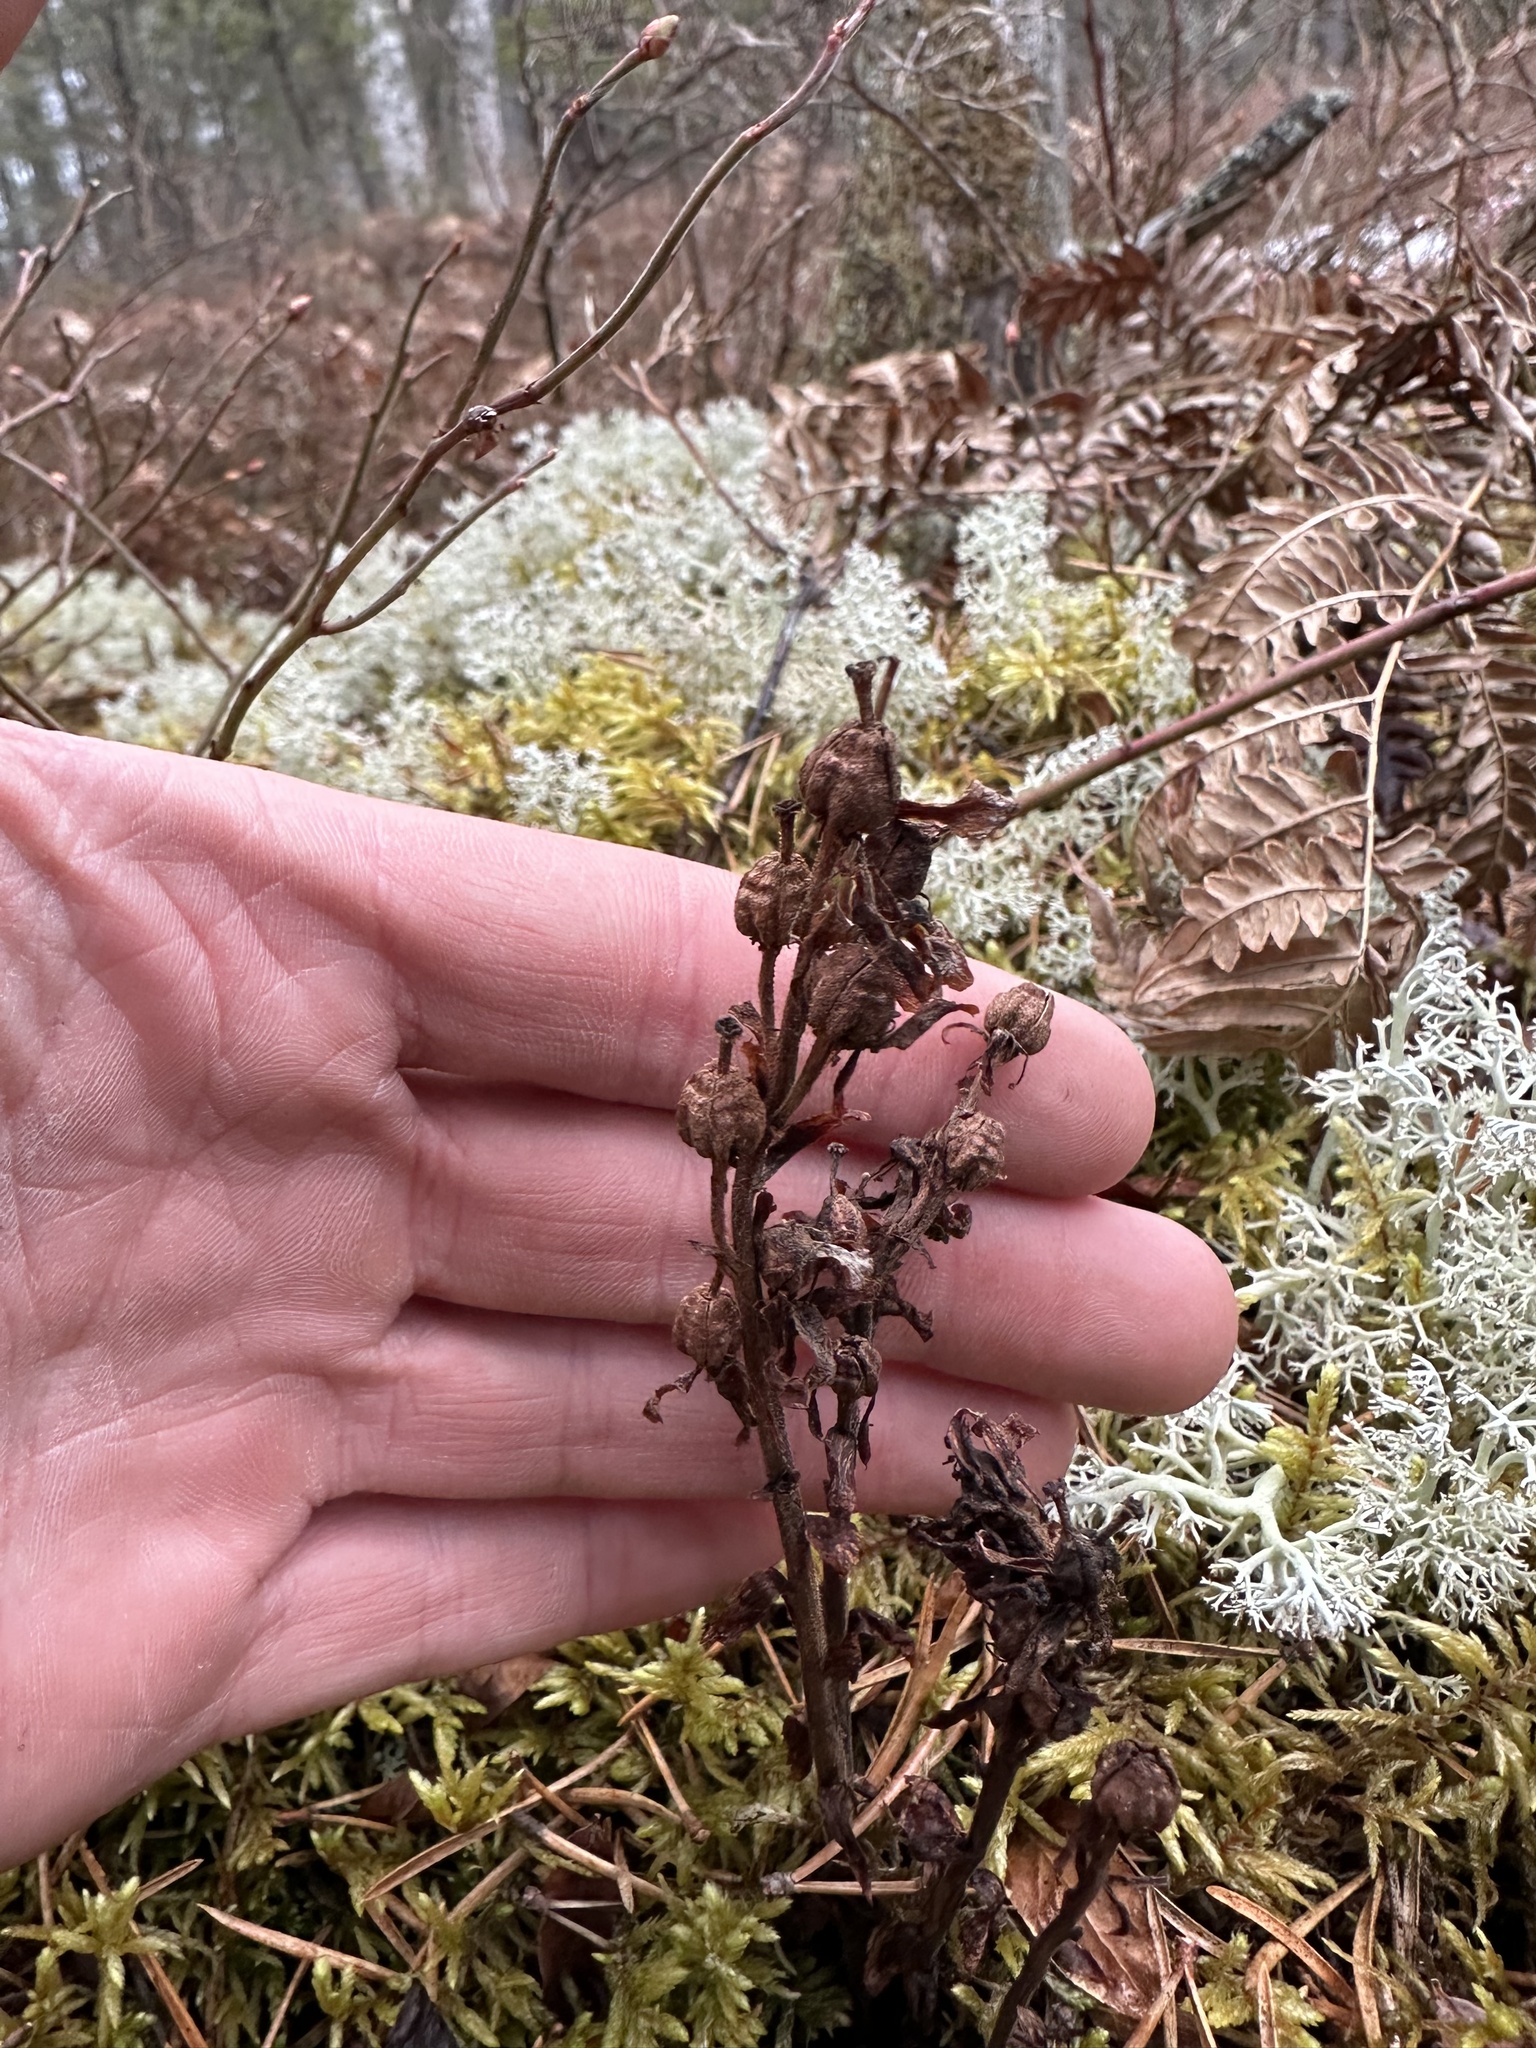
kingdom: Plantae
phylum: Tracheophyta
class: Magnoliopsida
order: Ericales
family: Ericaceae
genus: Hypopitys
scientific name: Hypopitys monotropa
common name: Yellow bird's-nest
